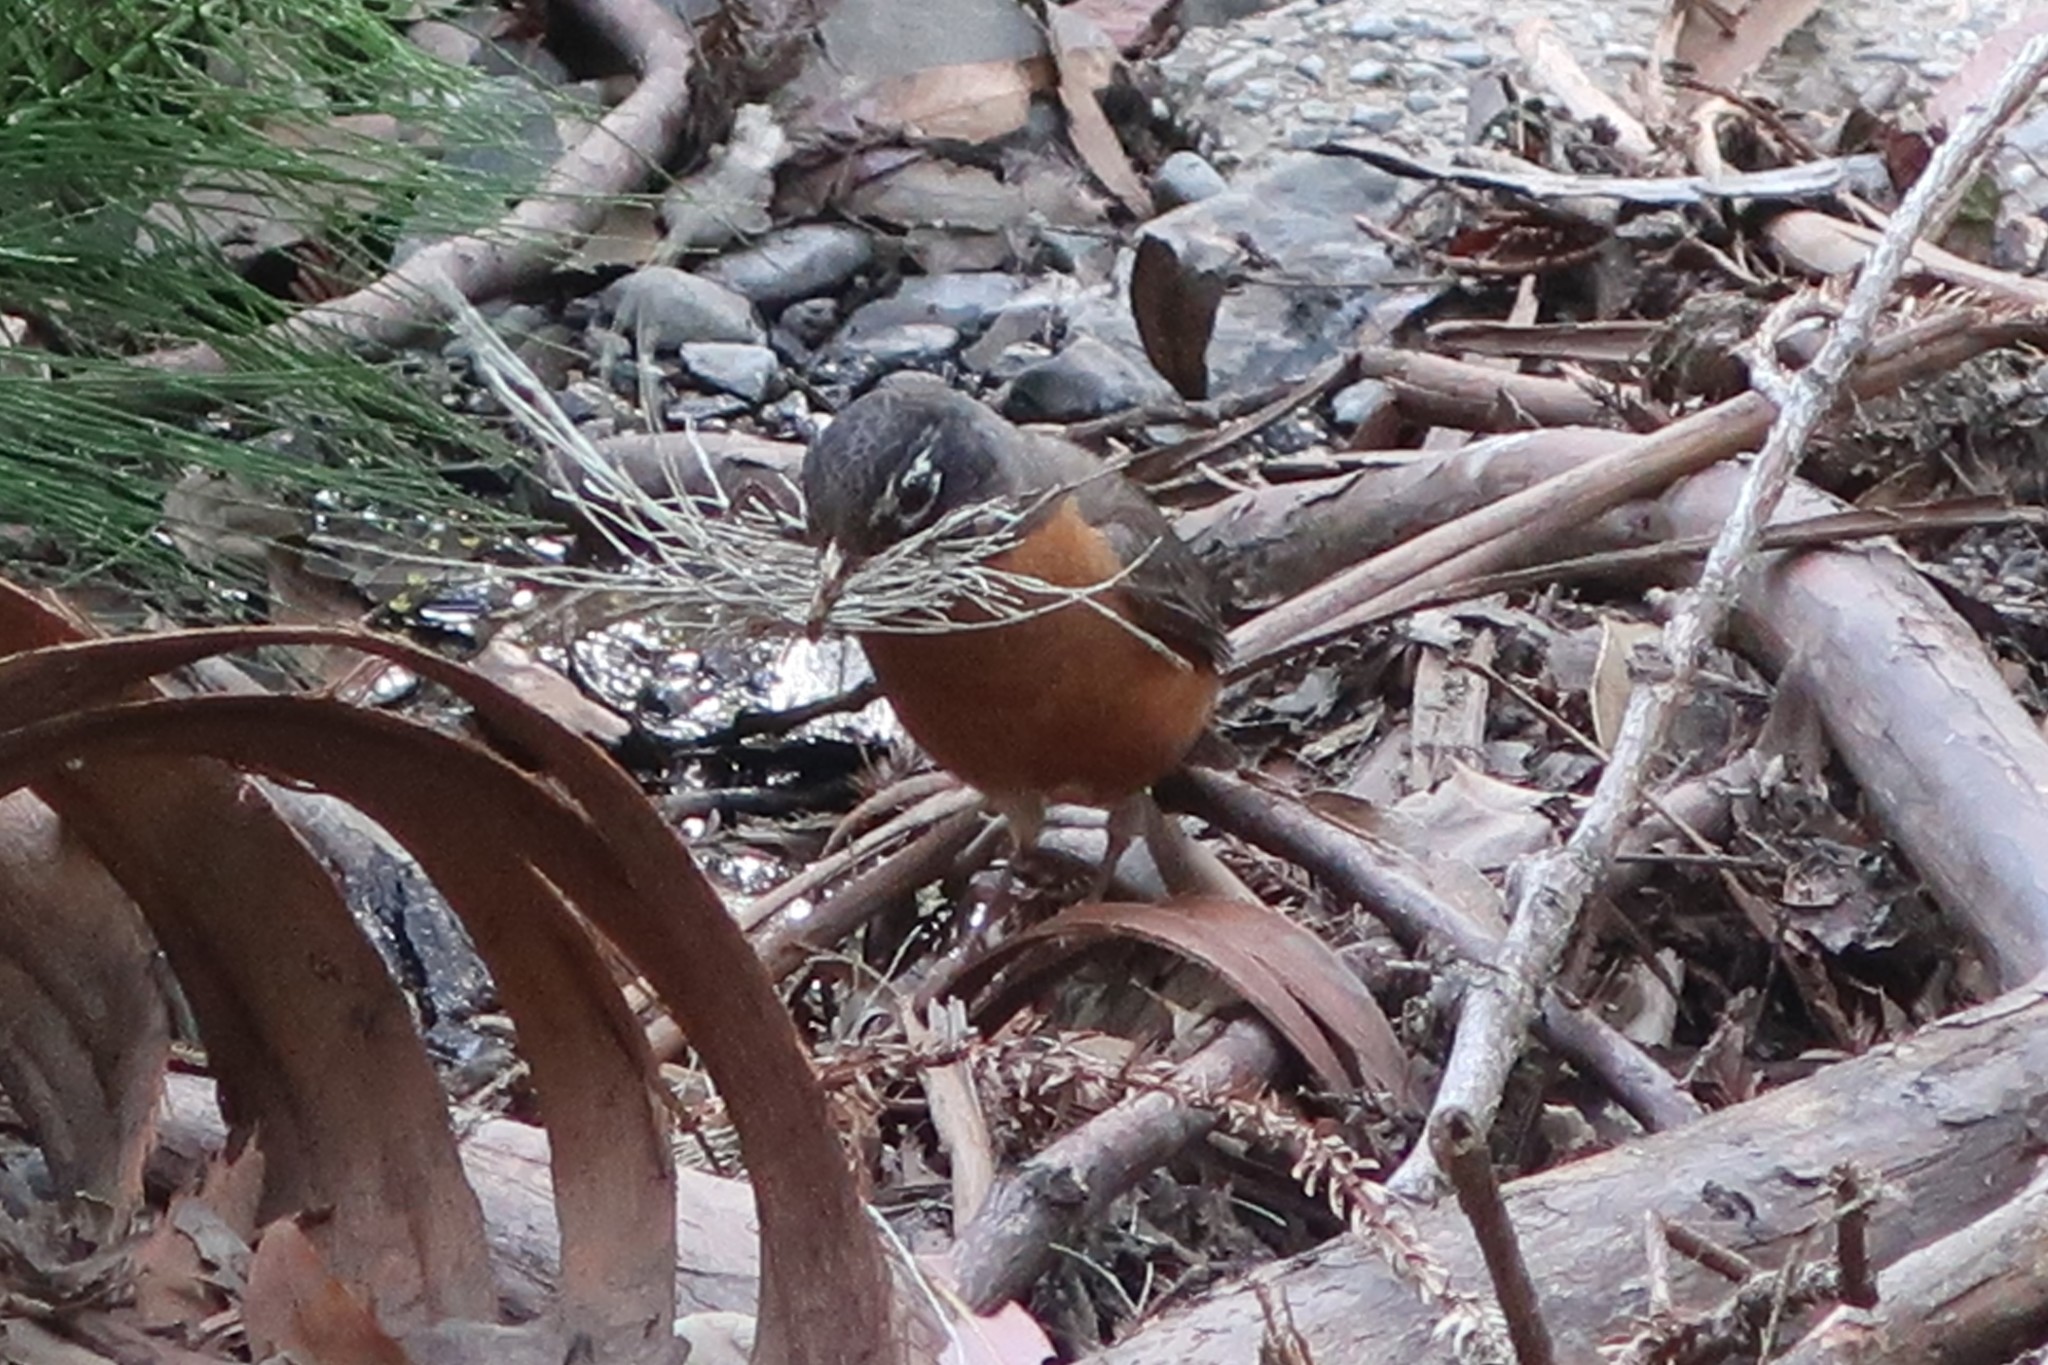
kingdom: Animalia
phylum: Chordata
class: Aves
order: Passeriformes
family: Turdidae
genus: Turdus
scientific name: Turdus migratorius
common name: American robin
